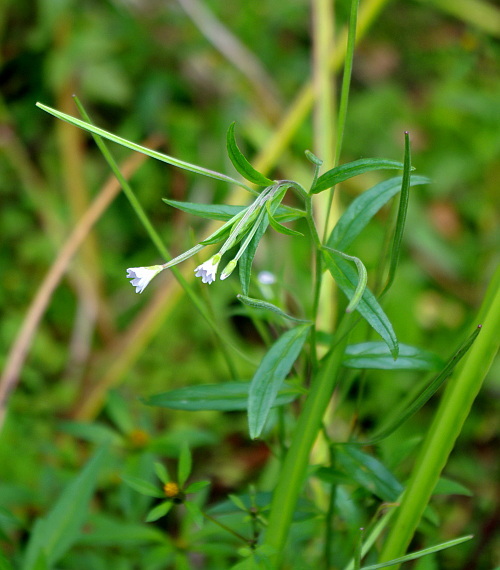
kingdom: Plantae
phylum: Tracheophyta
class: Magnoliopsida
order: Myrtales
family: Onagraceae
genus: Epilobium
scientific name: Epilobium palustre
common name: Marsh willowherb
